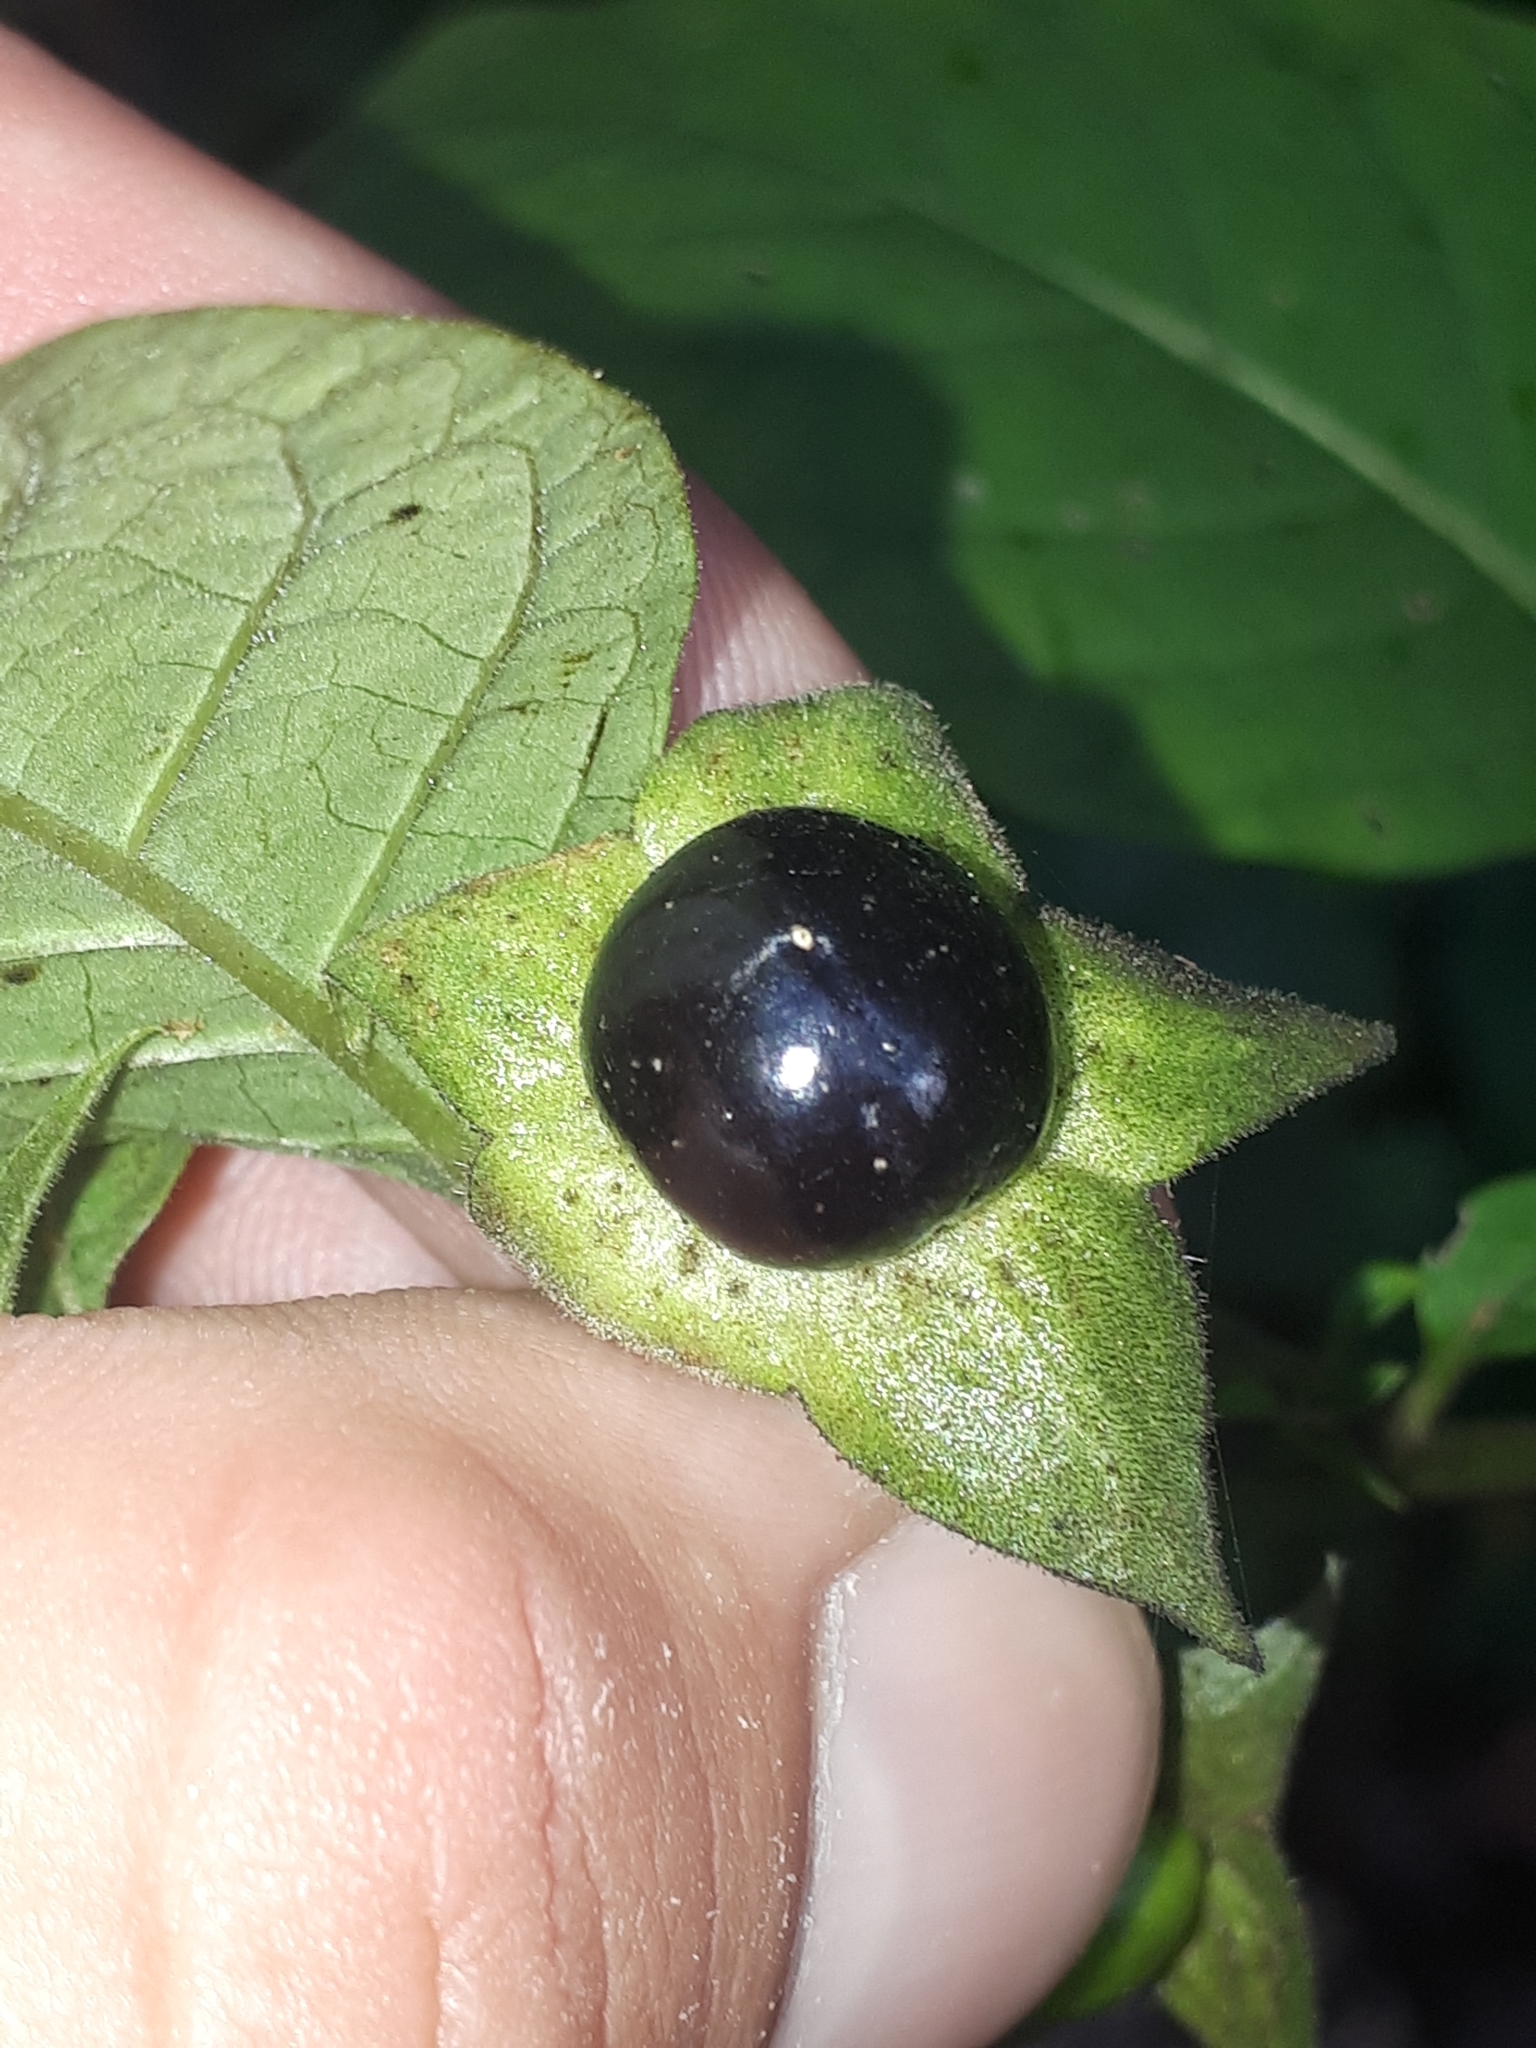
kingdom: Plantae
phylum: Tracheophyta
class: Magnoliopsida
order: Solanales
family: Solanaceae
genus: Atropa
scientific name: Atropa belladonna
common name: Deadly nightshade
